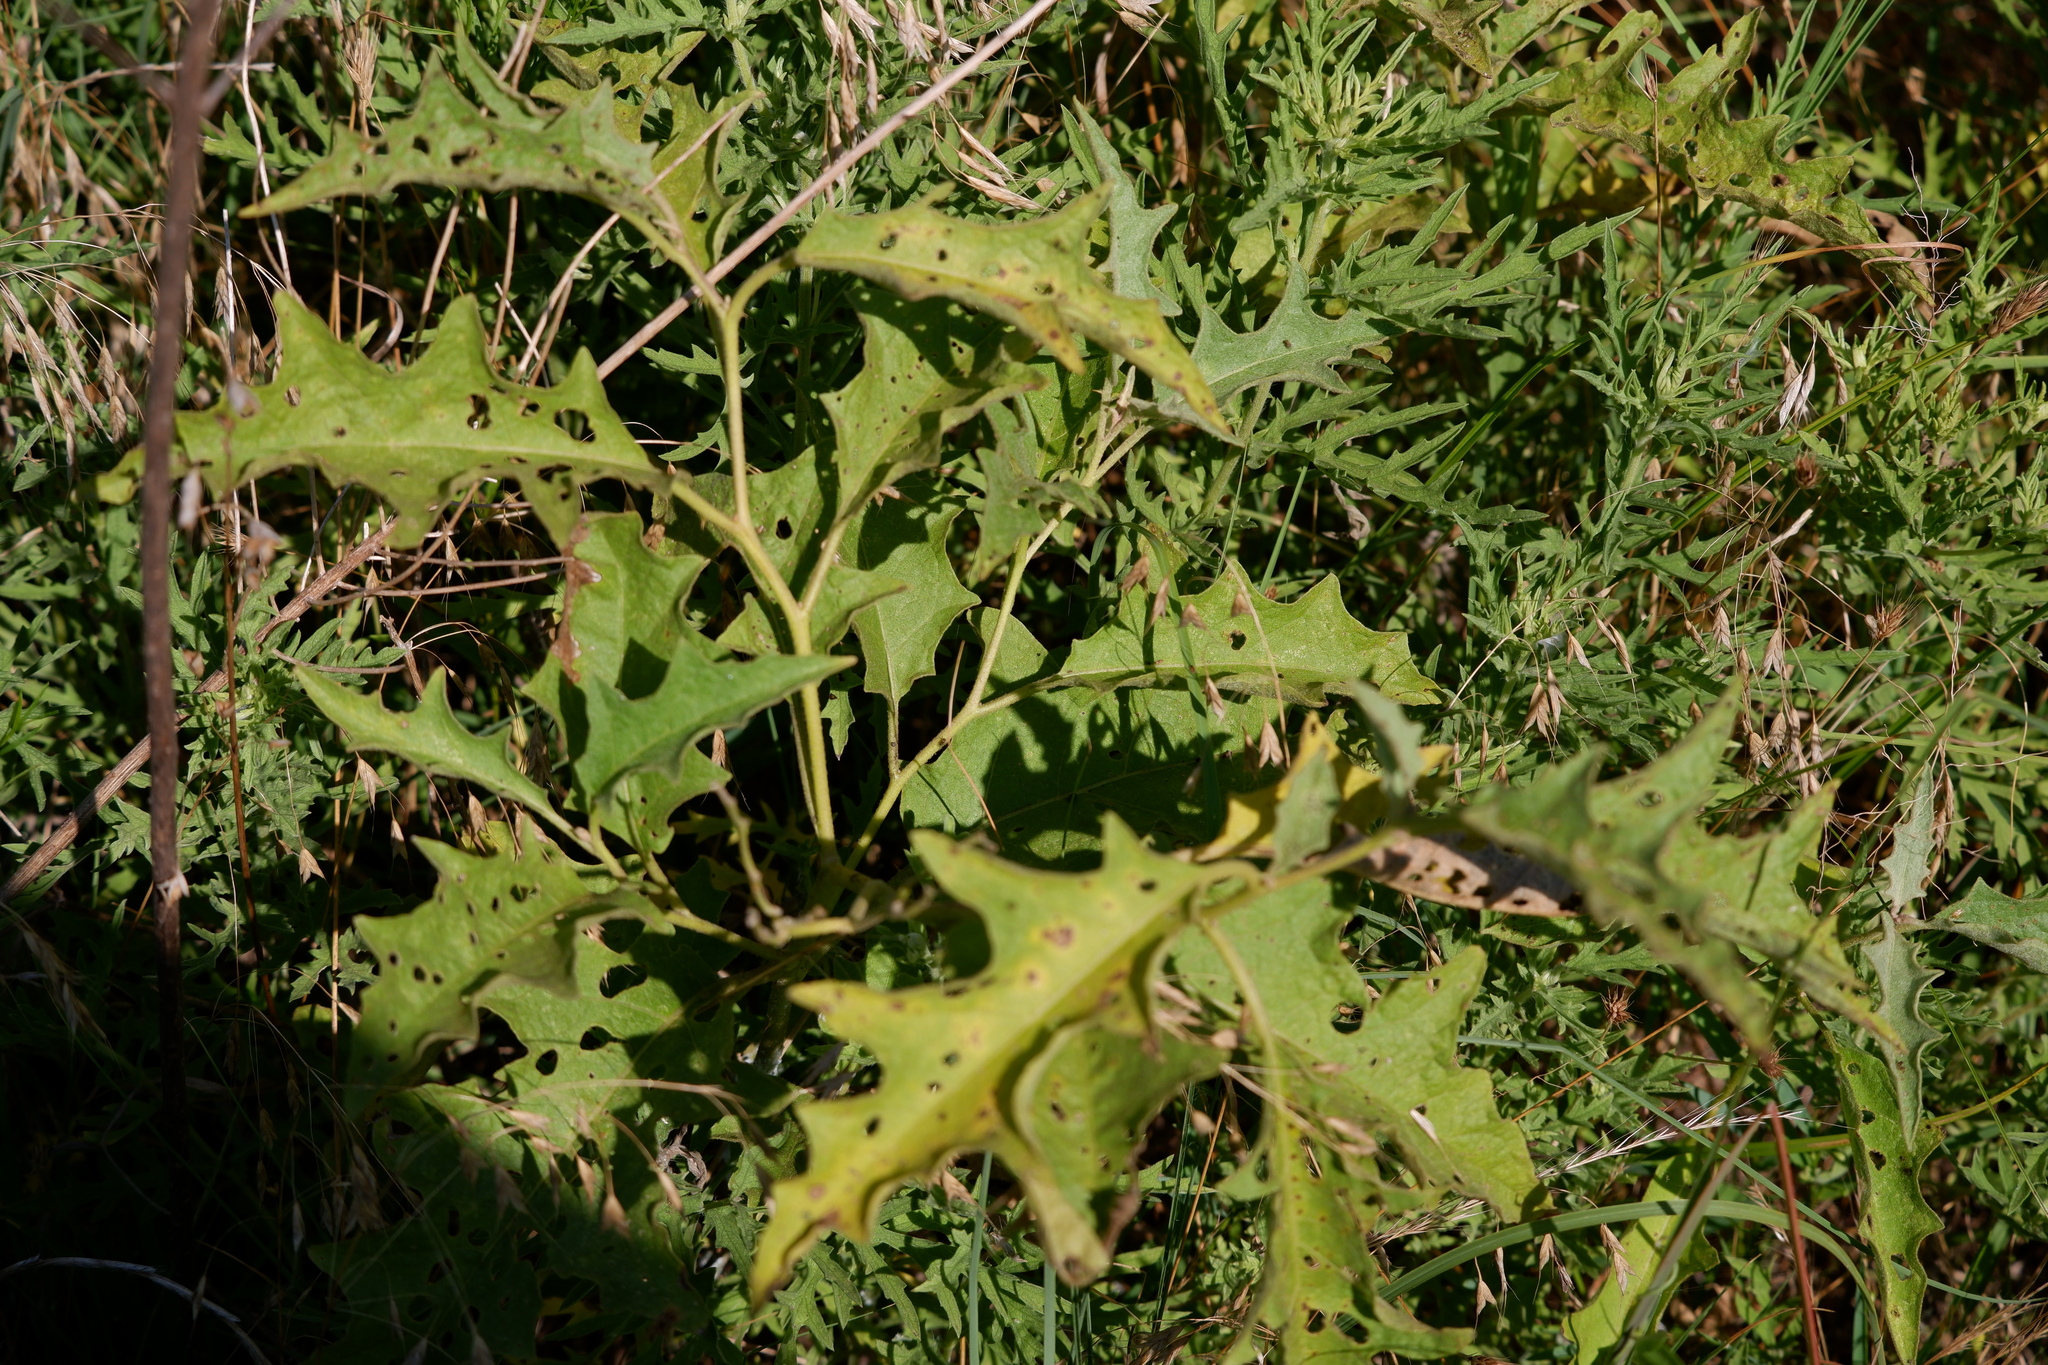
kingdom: Plantae
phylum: Tracheophyta
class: Magnoliopsida
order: Solanales
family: Solanaceae
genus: Solanum
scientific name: Solanum dimidiatum
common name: Carolina horse-nettle
